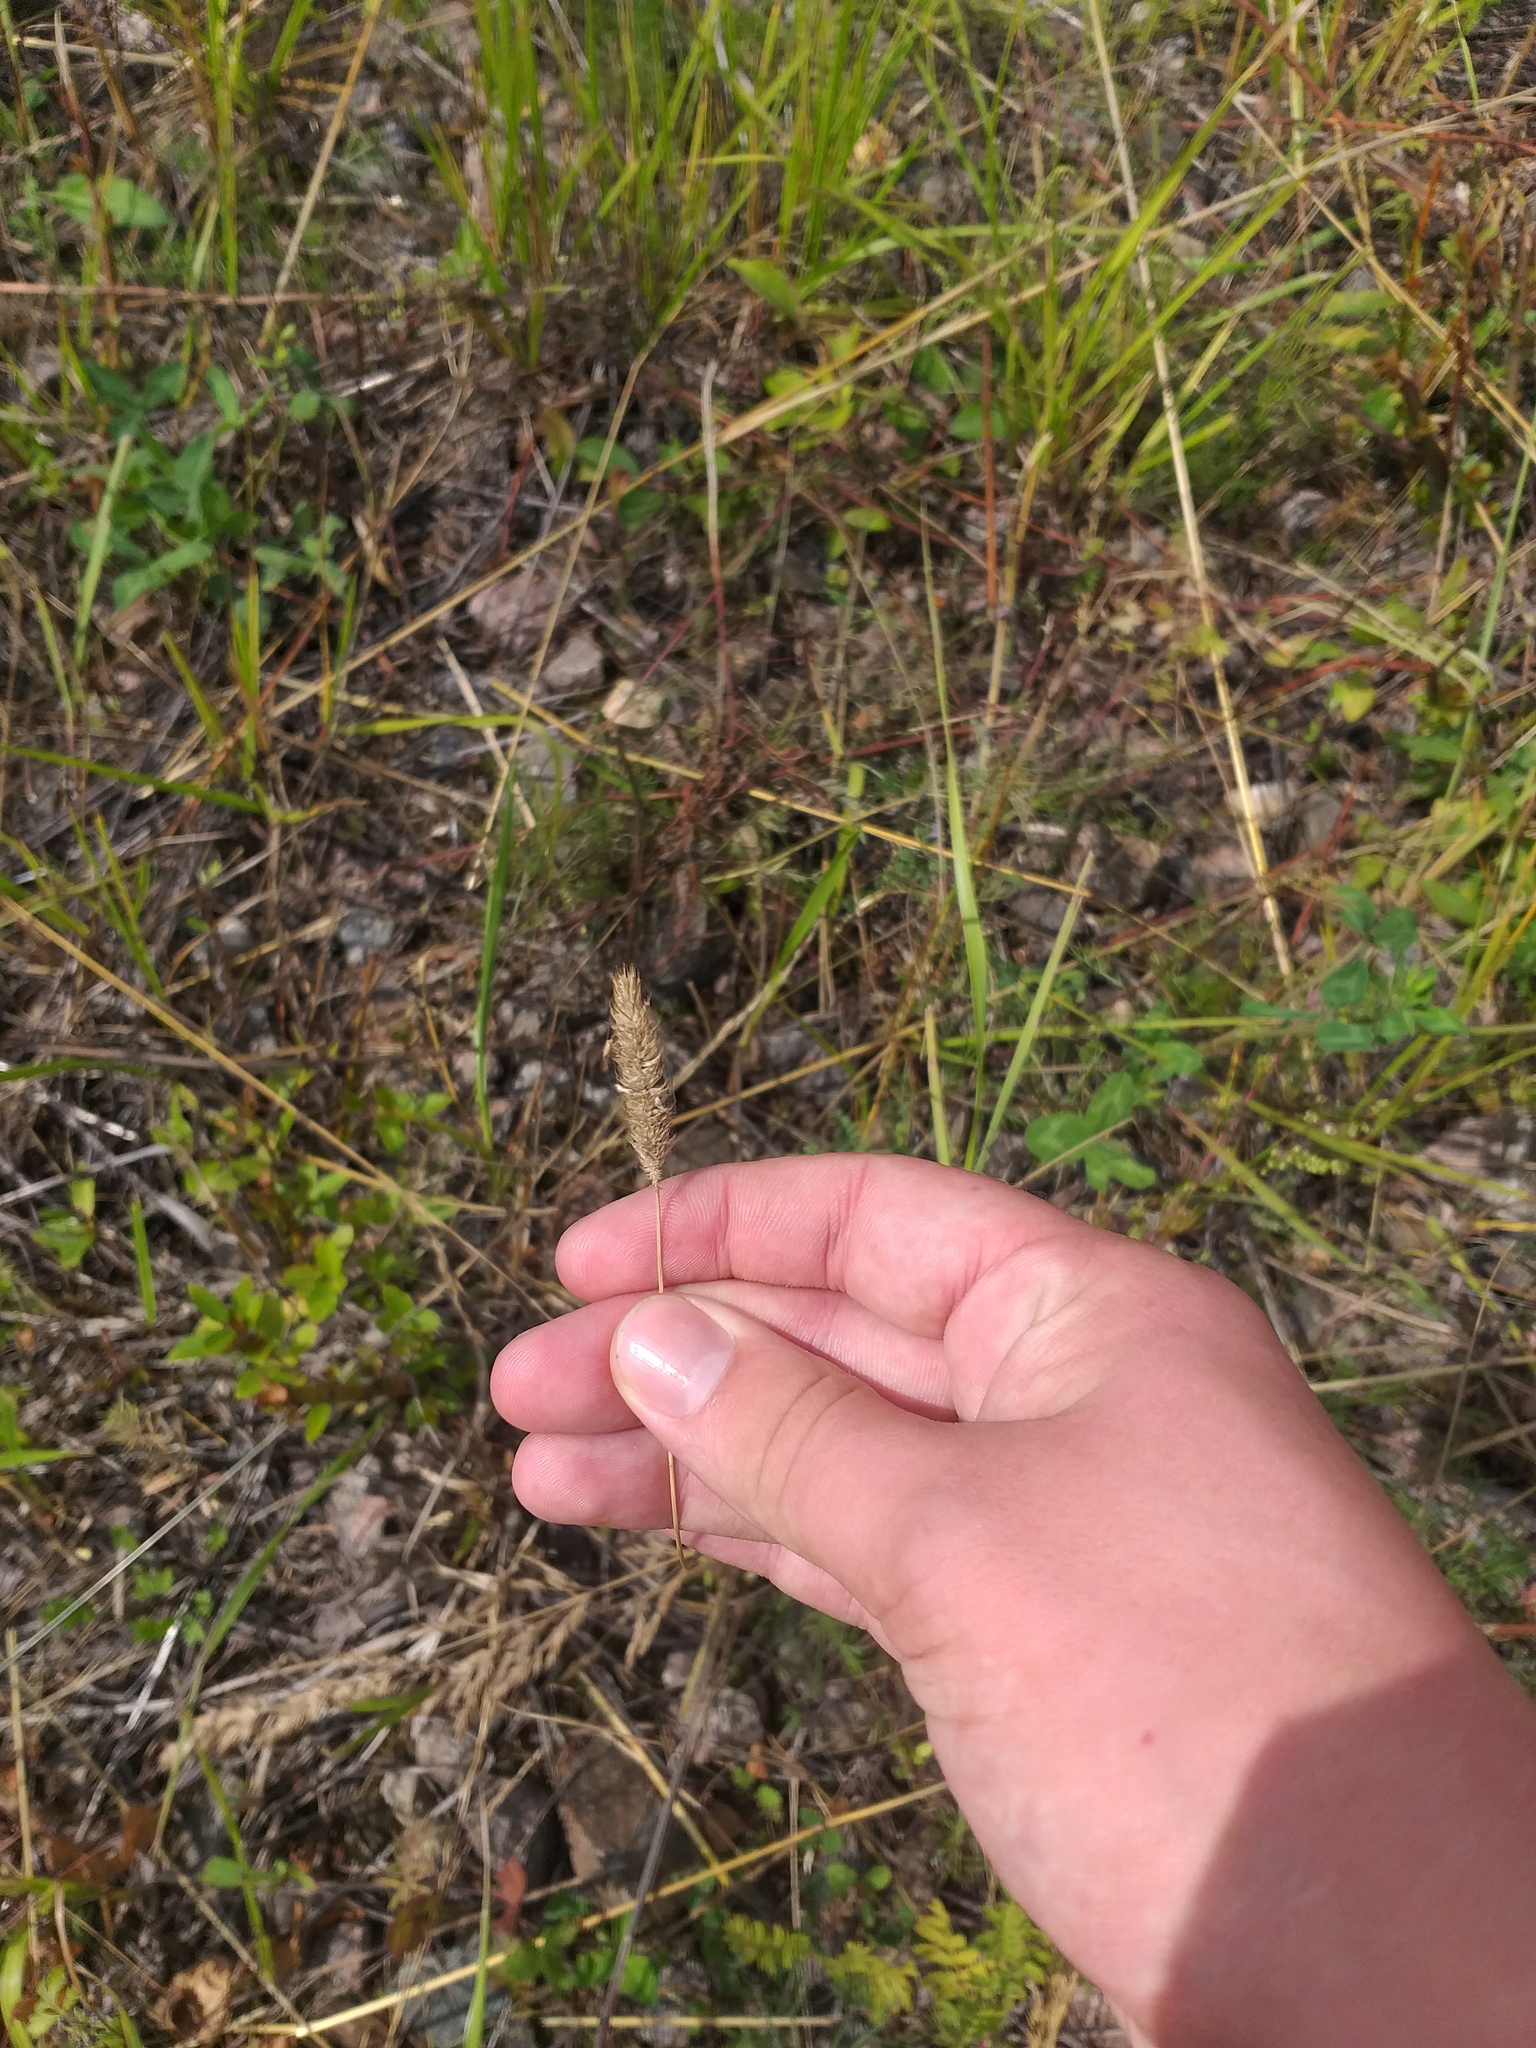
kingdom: Plantae
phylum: Tracheophyta
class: Liliopsida
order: Poales
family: Poaceae
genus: Phleum
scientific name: Phleum pratense
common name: Timothy grass
